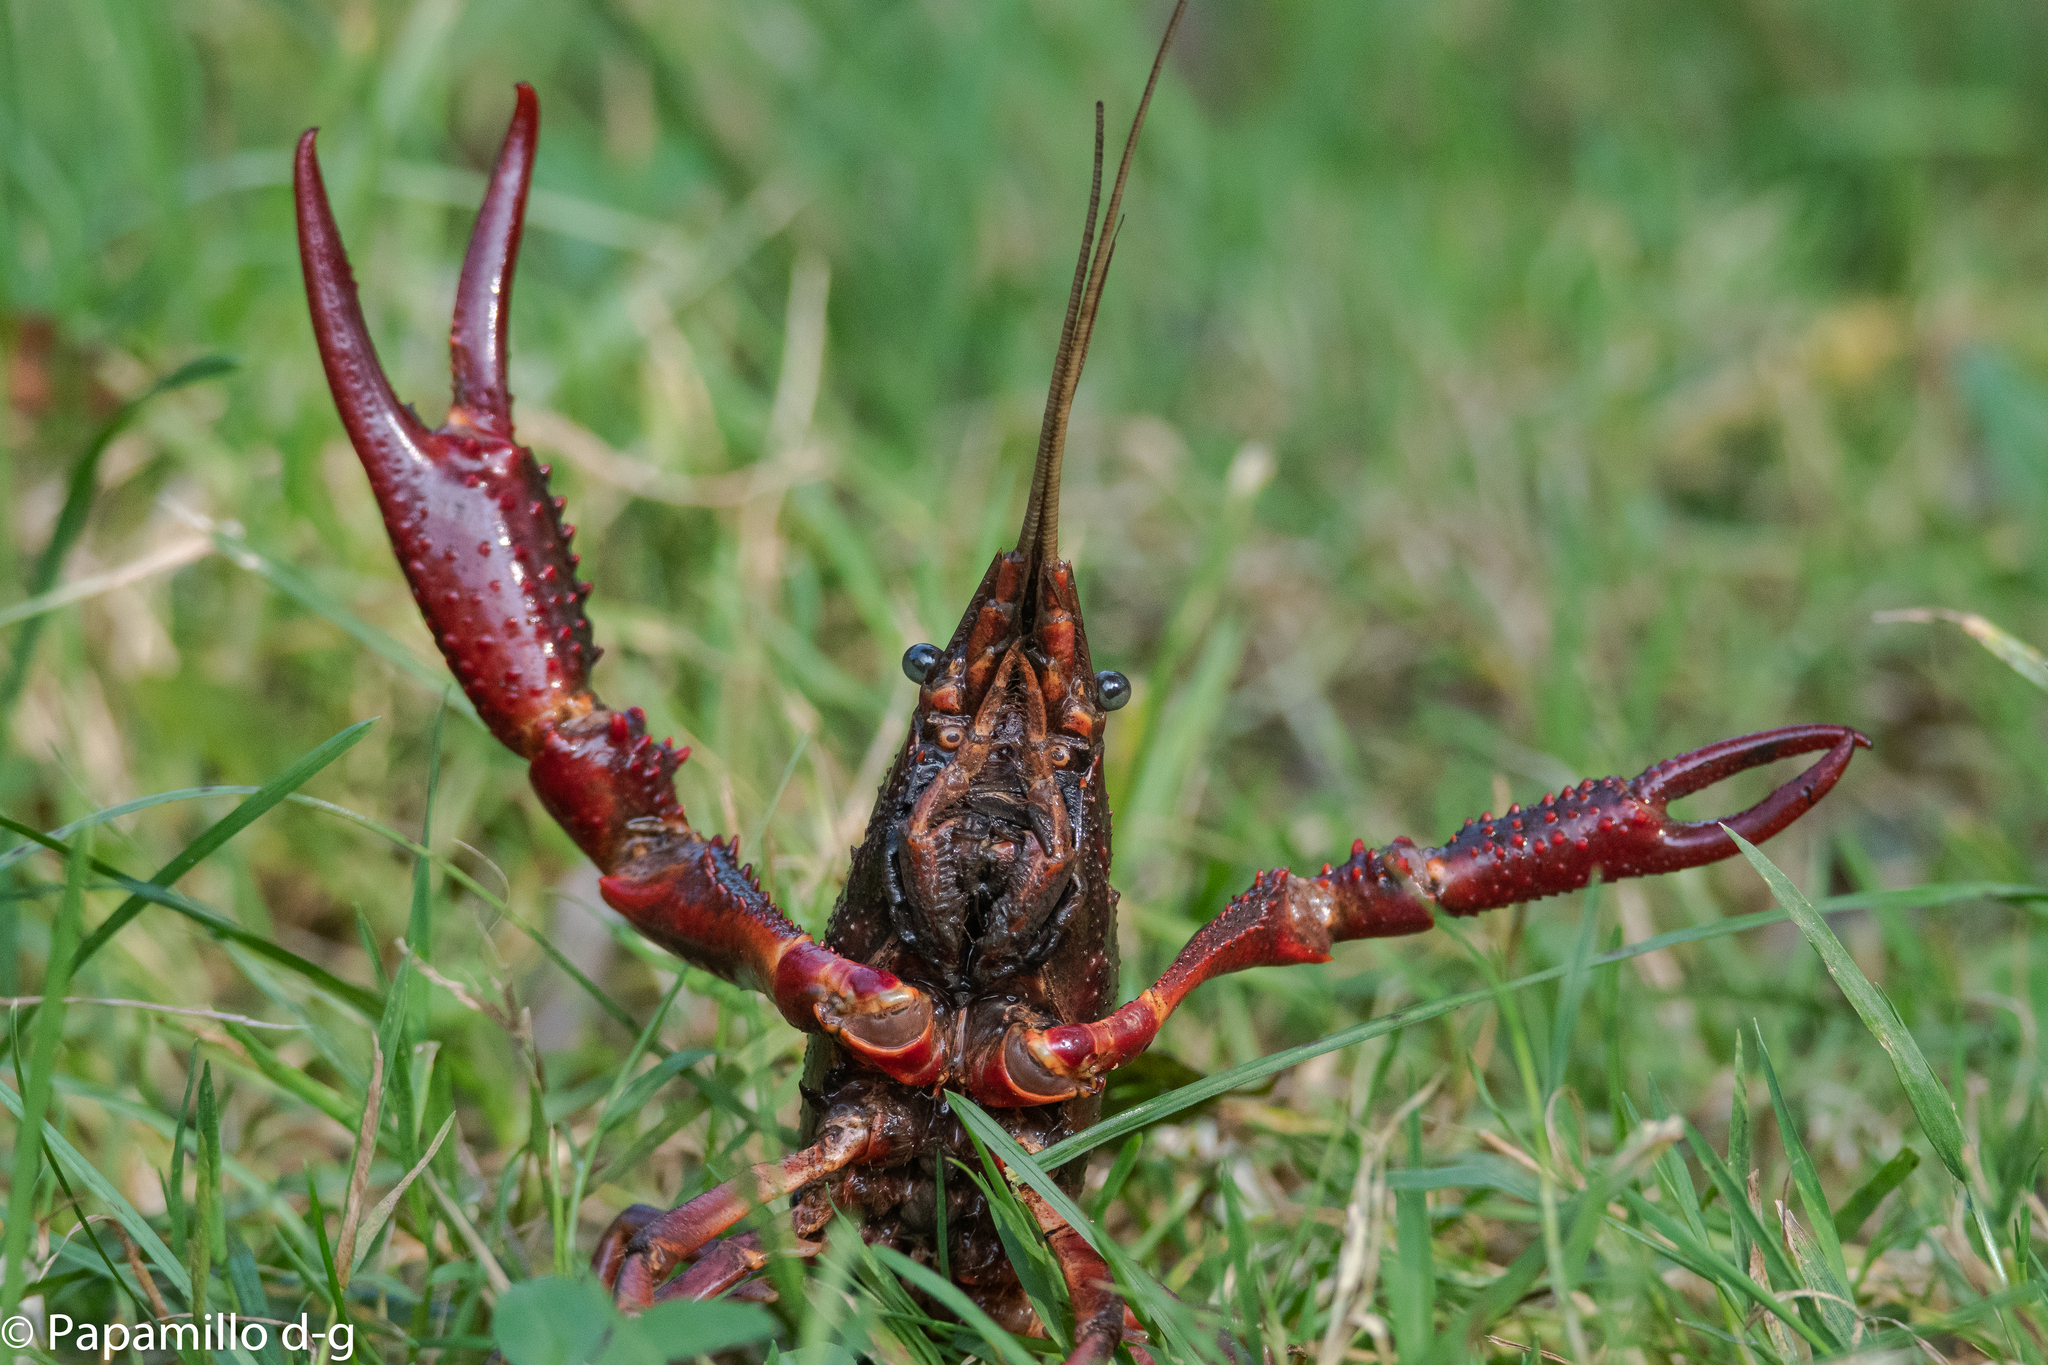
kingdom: Animalia
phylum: Arthropoda
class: Malacostraca
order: Decapoda
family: Cambaridae
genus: Procambarus
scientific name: Procambarus clarkii
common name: Red swamp crayfish
